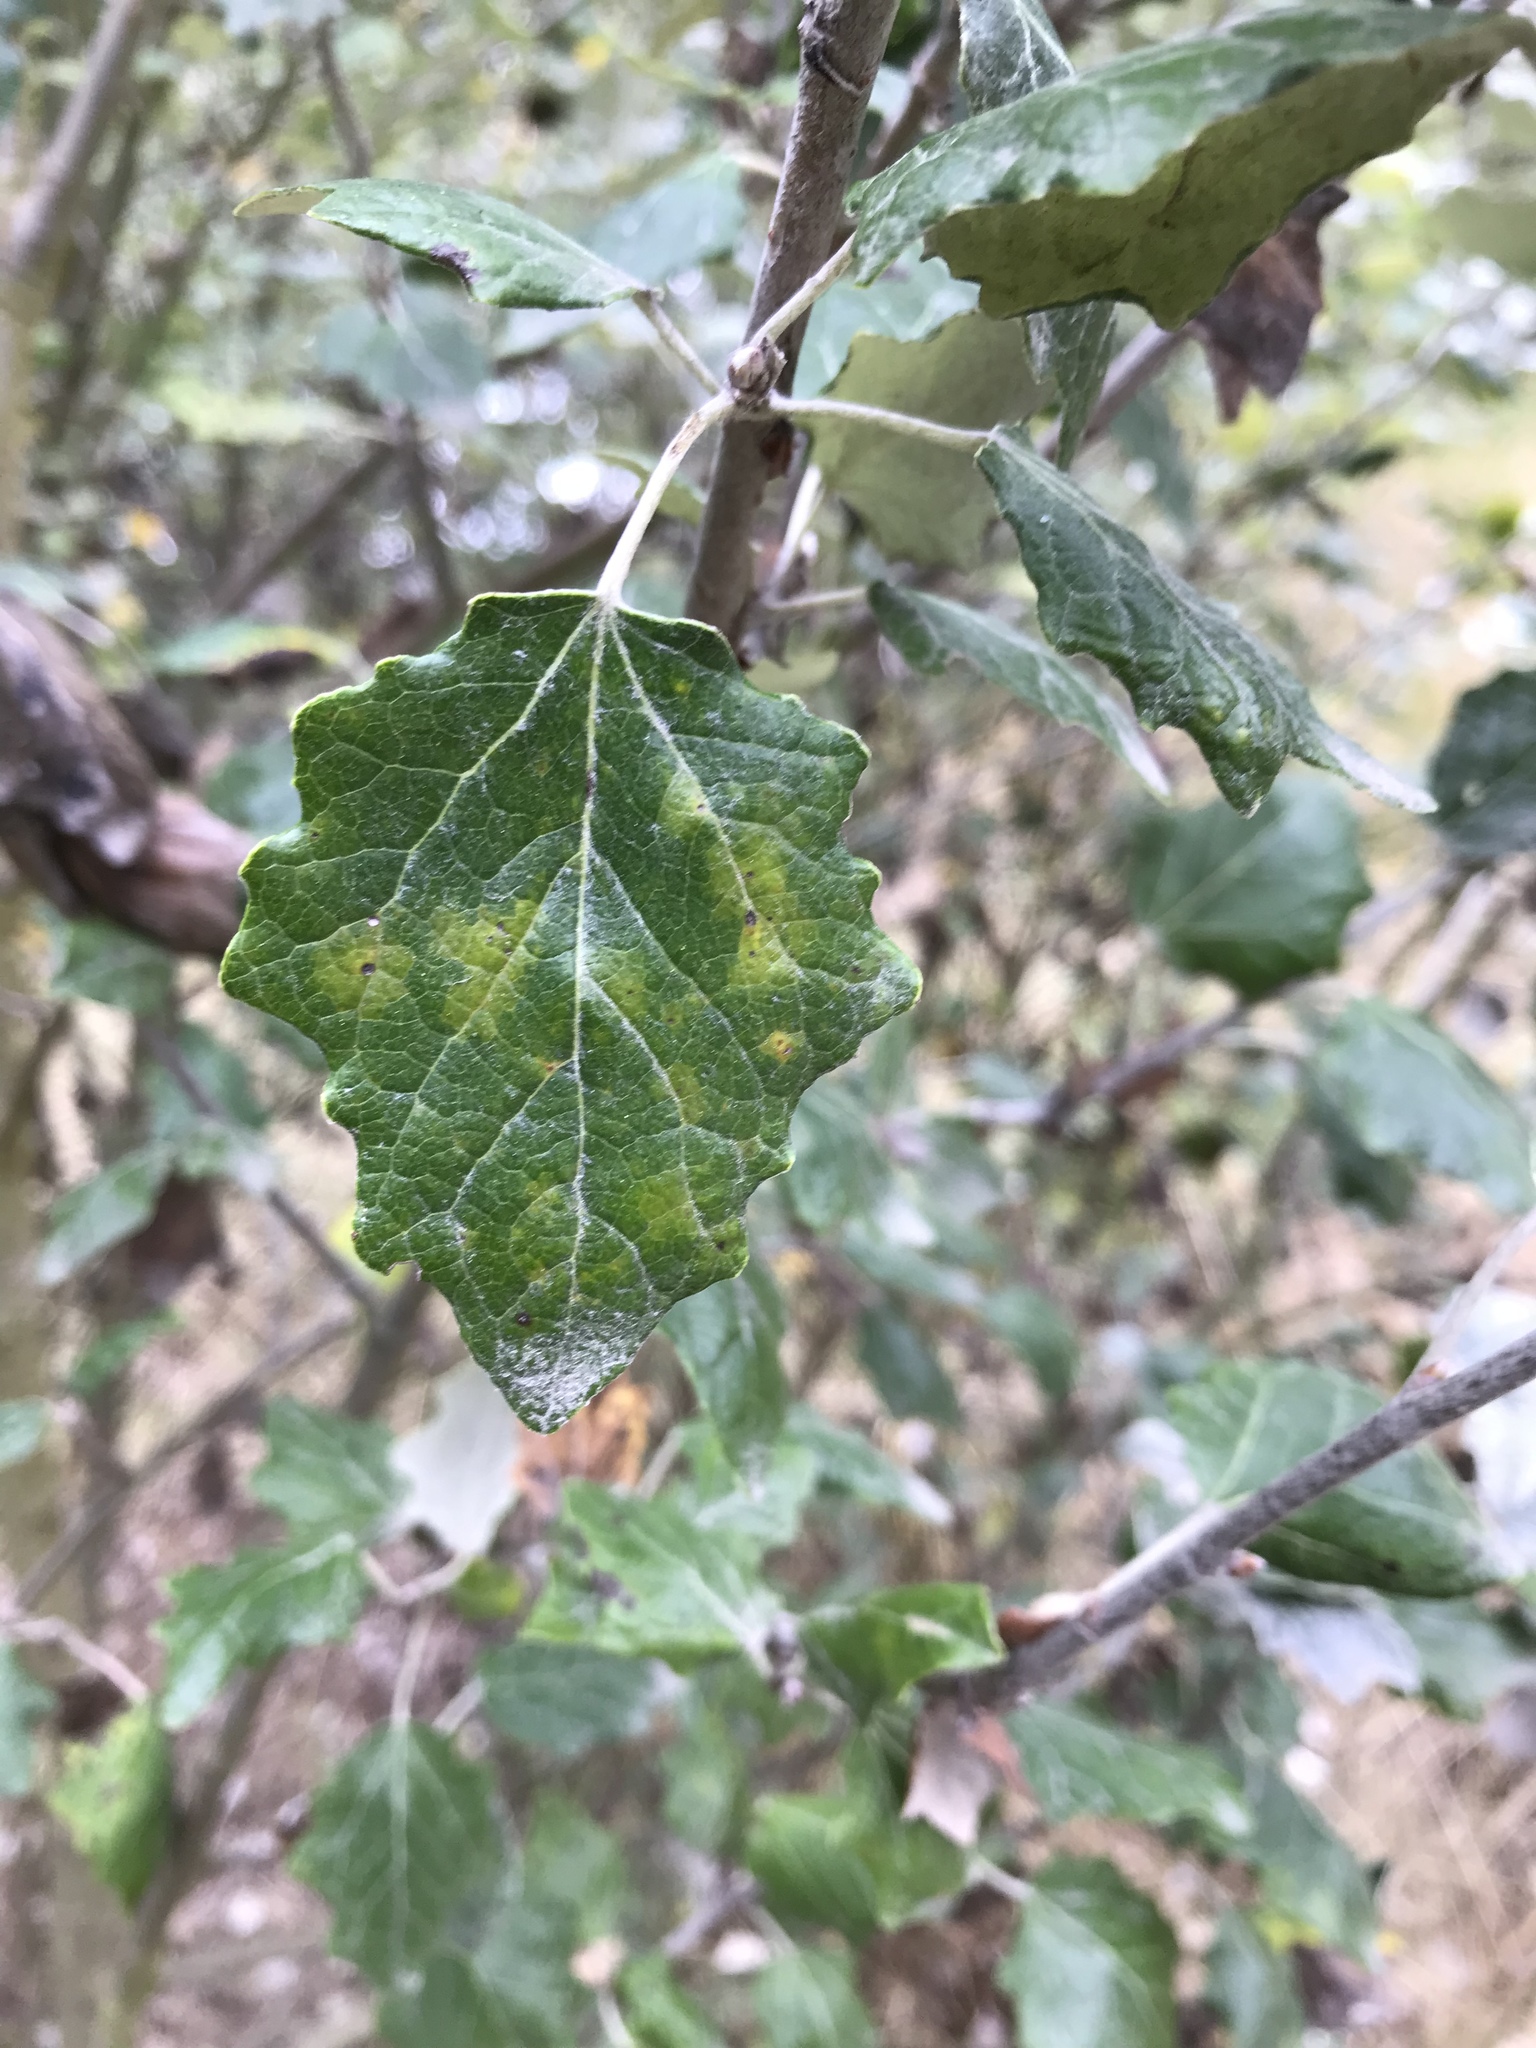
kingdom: Plantae
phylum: Tracheophyta
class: Magnoliopsida
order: Malpighiales
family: Salicaceae
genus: Populus
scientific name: Populus alba
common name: White poplar
